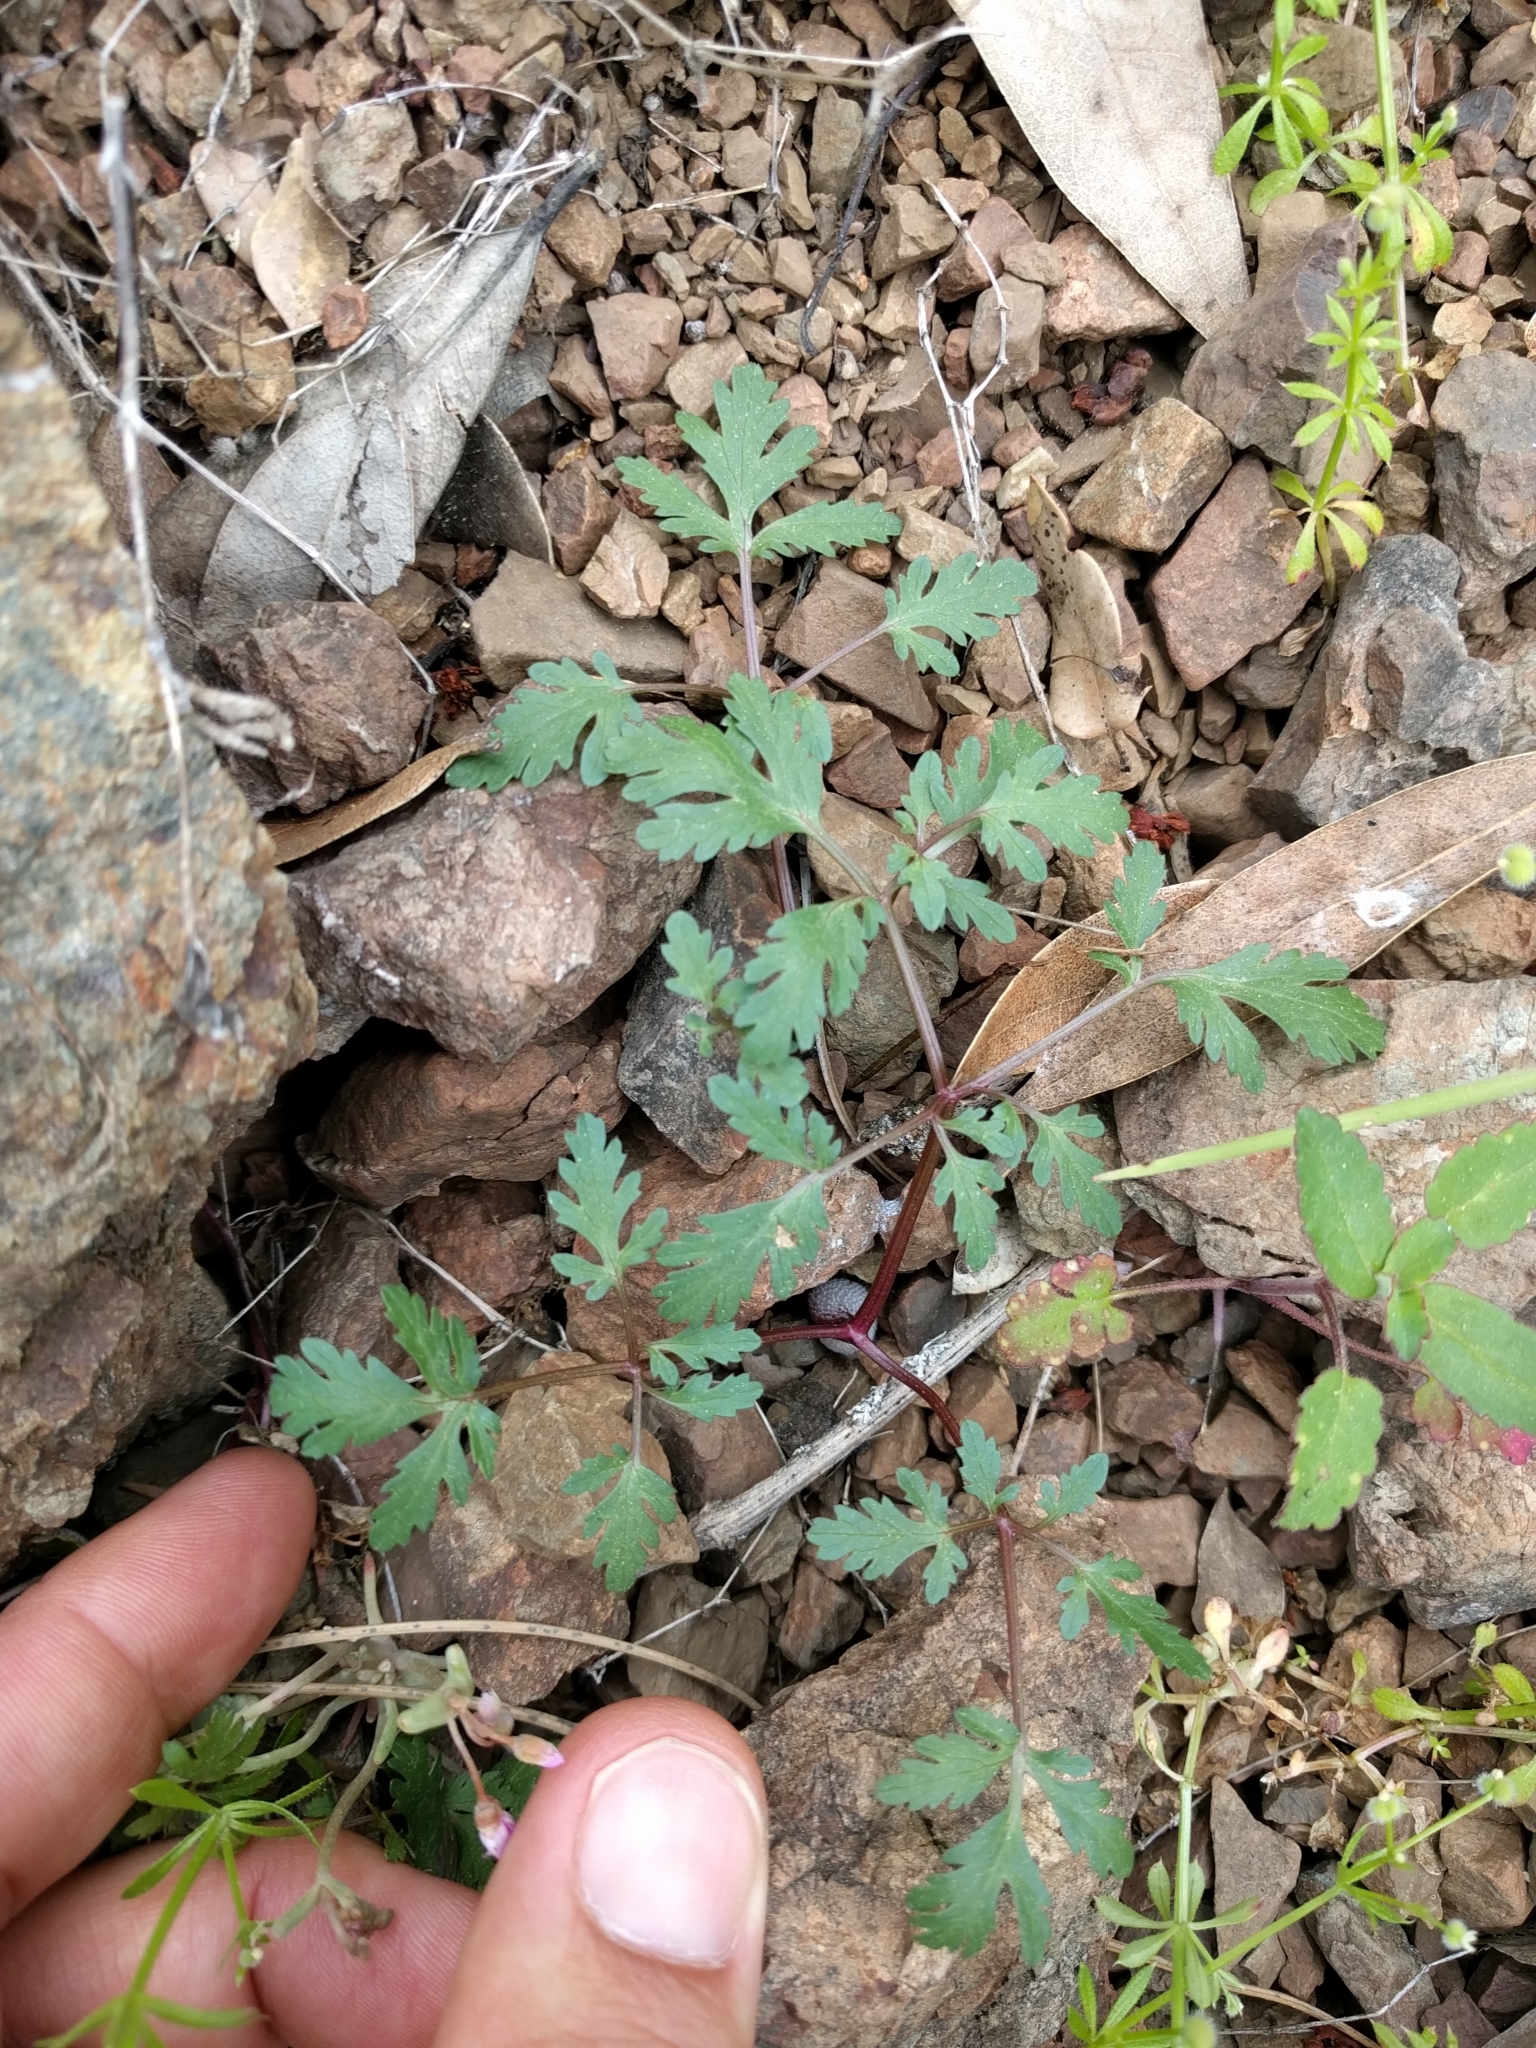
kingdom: Plantae
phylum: Tracheophyta
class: Magnoliopsida
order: Apiales
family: Apiaceae
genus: Sanicula
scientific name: Sanicula saxatilis
